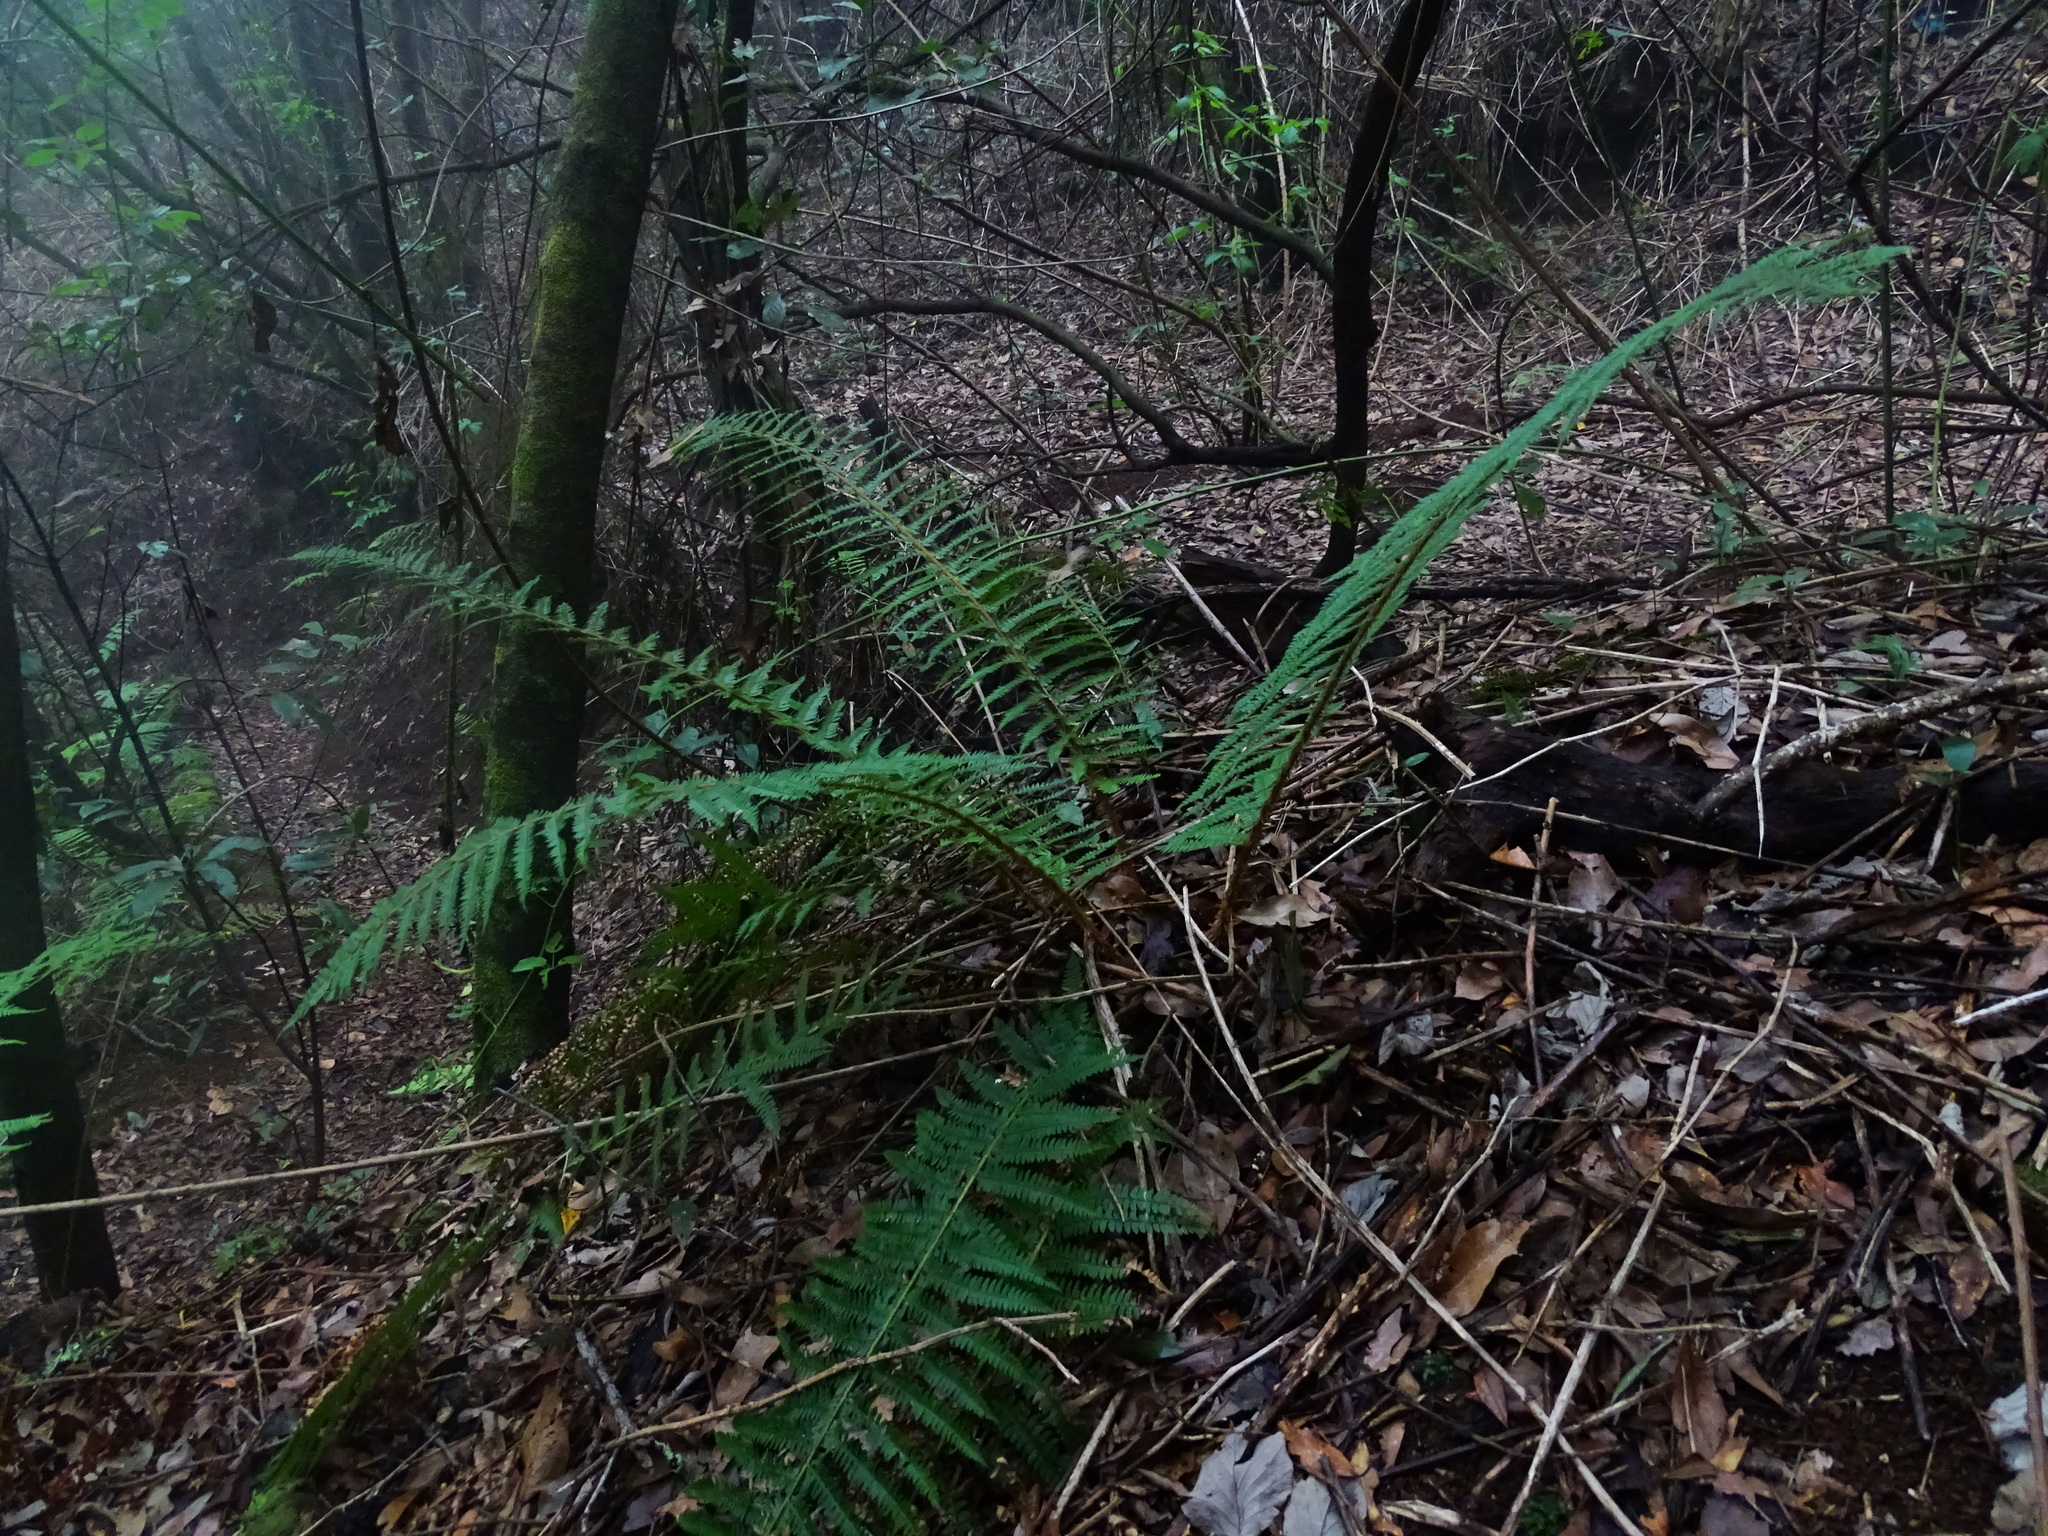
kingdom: Plantae
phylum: Tracheophyta
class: Polypodiopsida
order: Polypodiales
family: Dryopteridaceae
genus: Polystichum
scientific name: Polystichum setiferum
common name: Soft shield-fern
